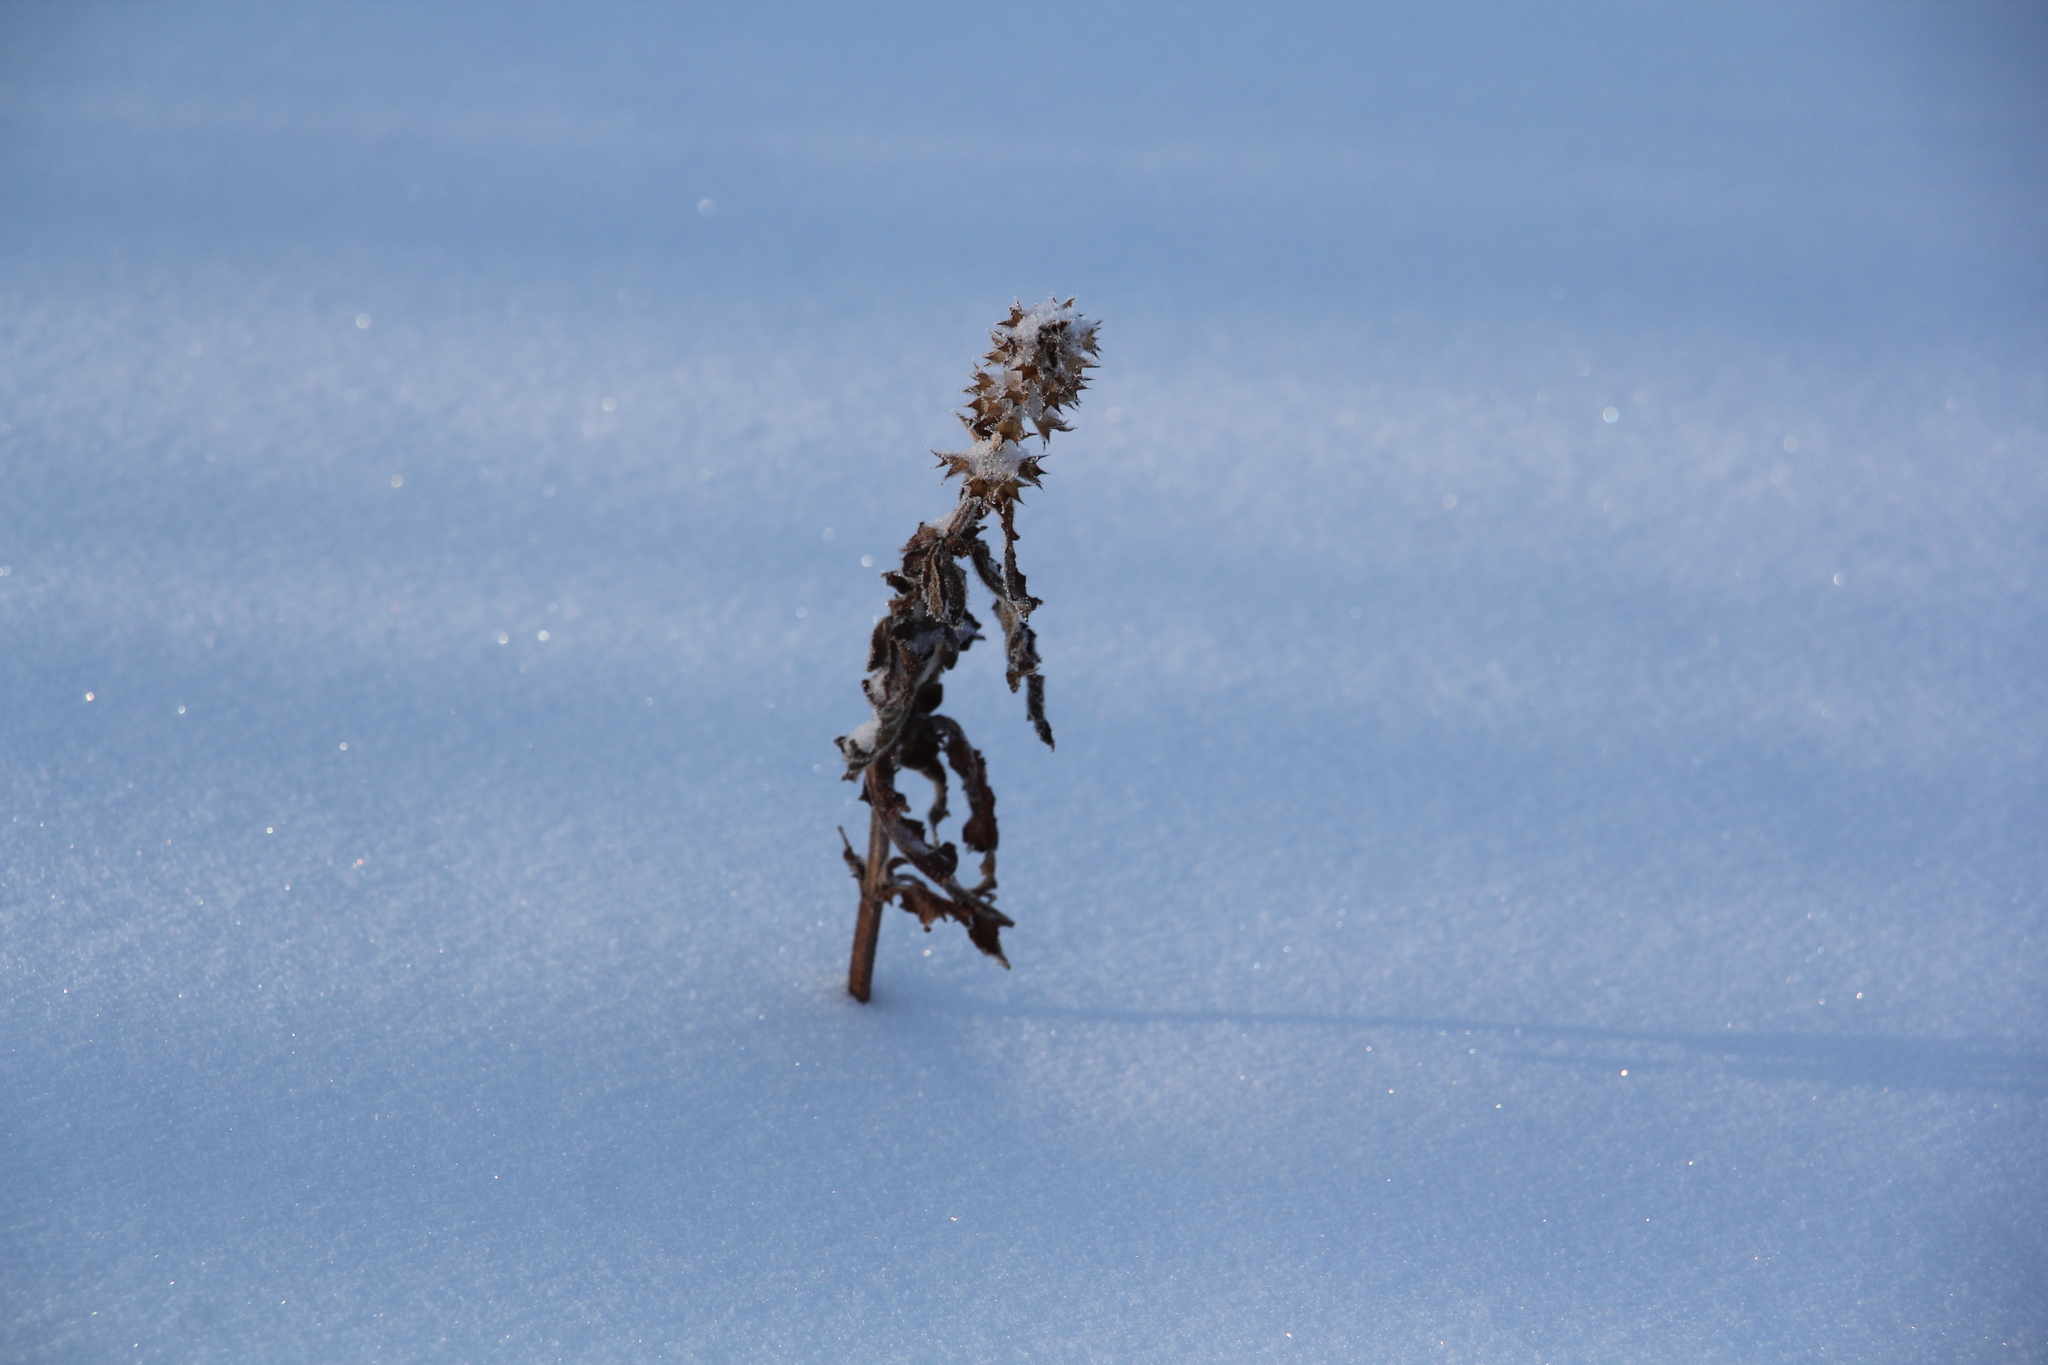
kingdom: Plantae
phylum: Tracheophyta
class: Magnoliopsida
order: Lamiales
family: Lamiaceae
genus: Stachys
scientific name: Stachys palustris
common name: Marsh woundwort
